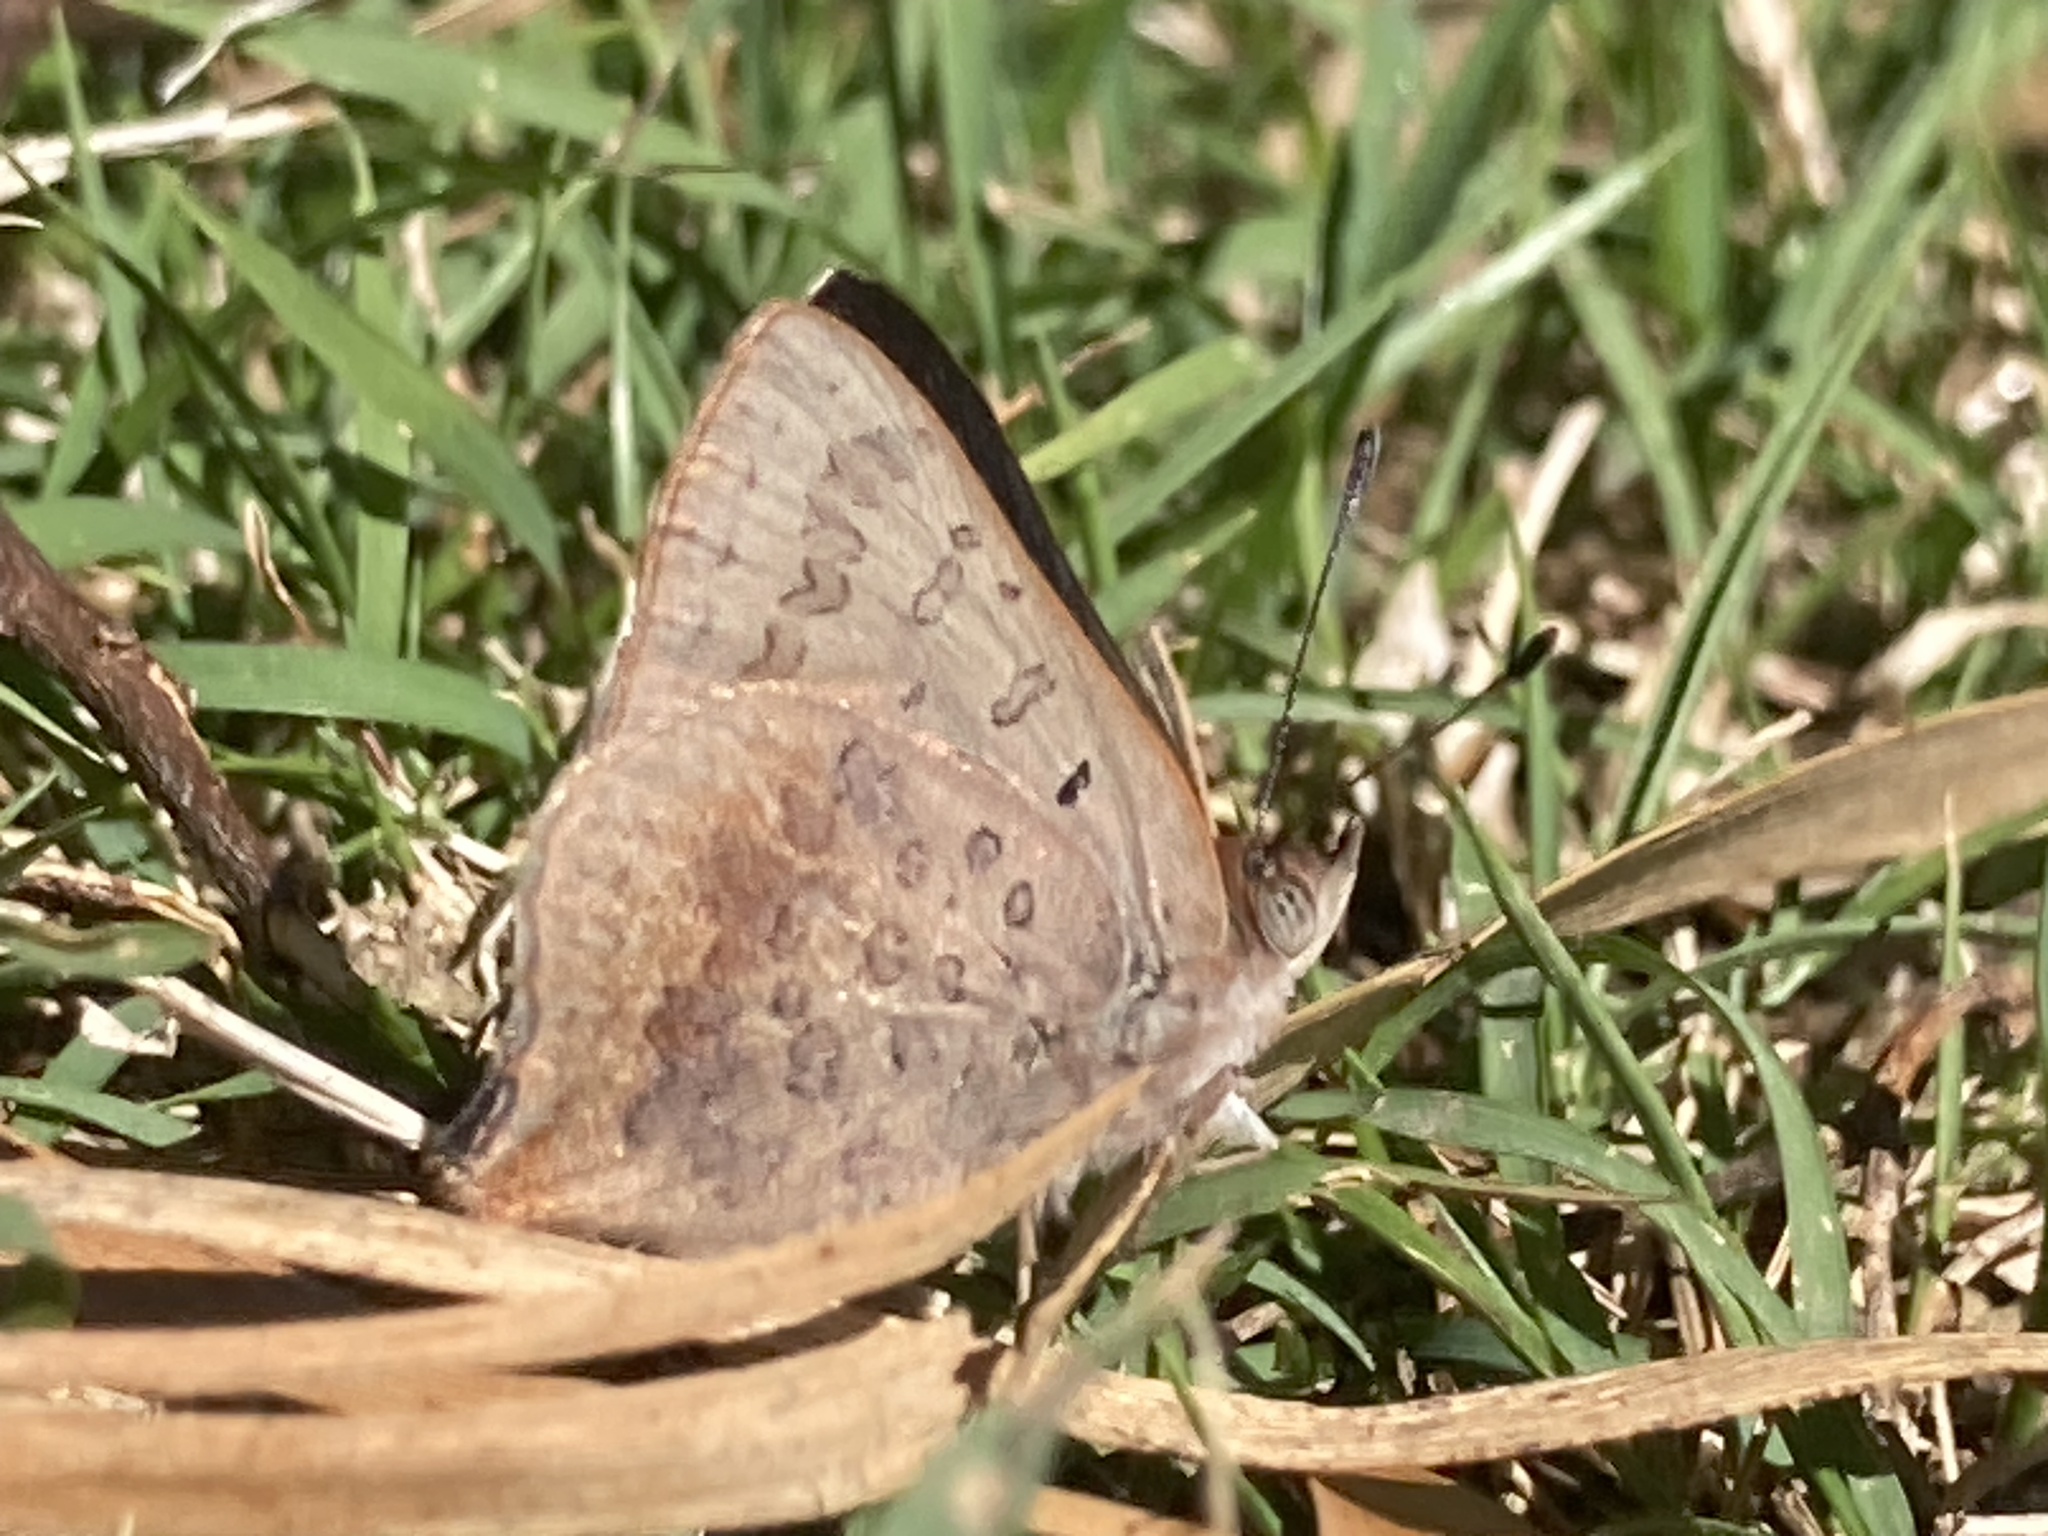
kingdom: Animalia
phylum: Arthropoda
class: Insecta
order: Lepidoptera
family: Lycaenidae
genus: Paralucia
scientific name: Paralucia pyrodiscus
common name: Fiery copper
